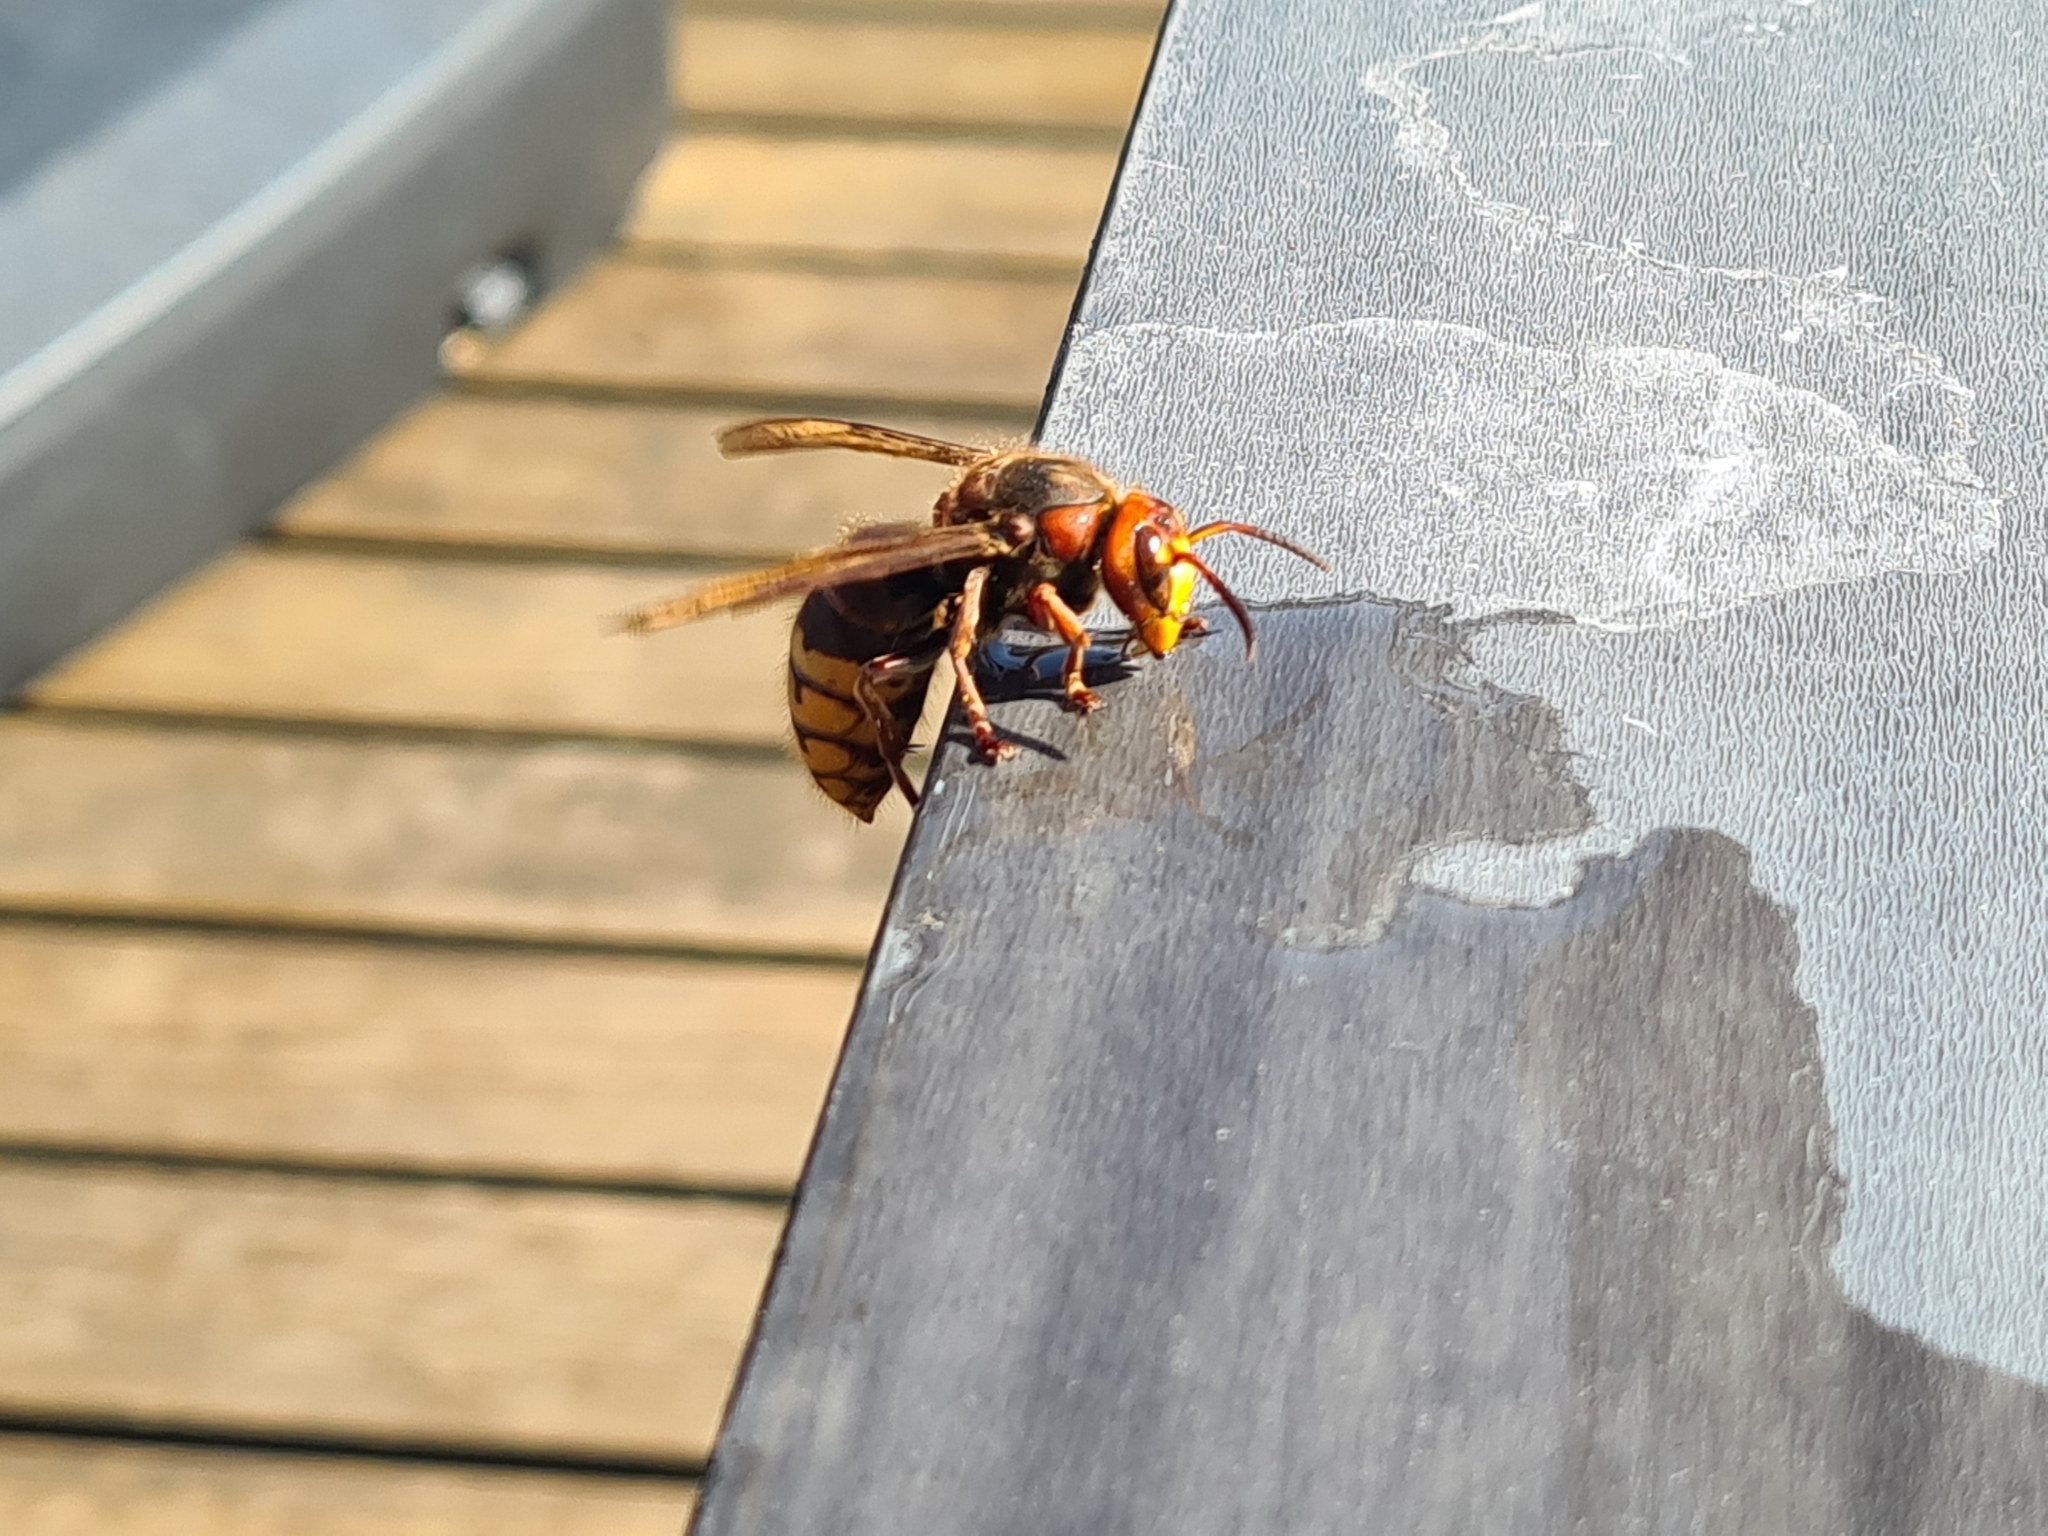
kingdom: Animalia
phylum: Arthropoda
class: Insecta
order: Hymenoptera
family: Vespidae
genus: Vespa
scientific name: Vespa crabro
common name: Hornet
